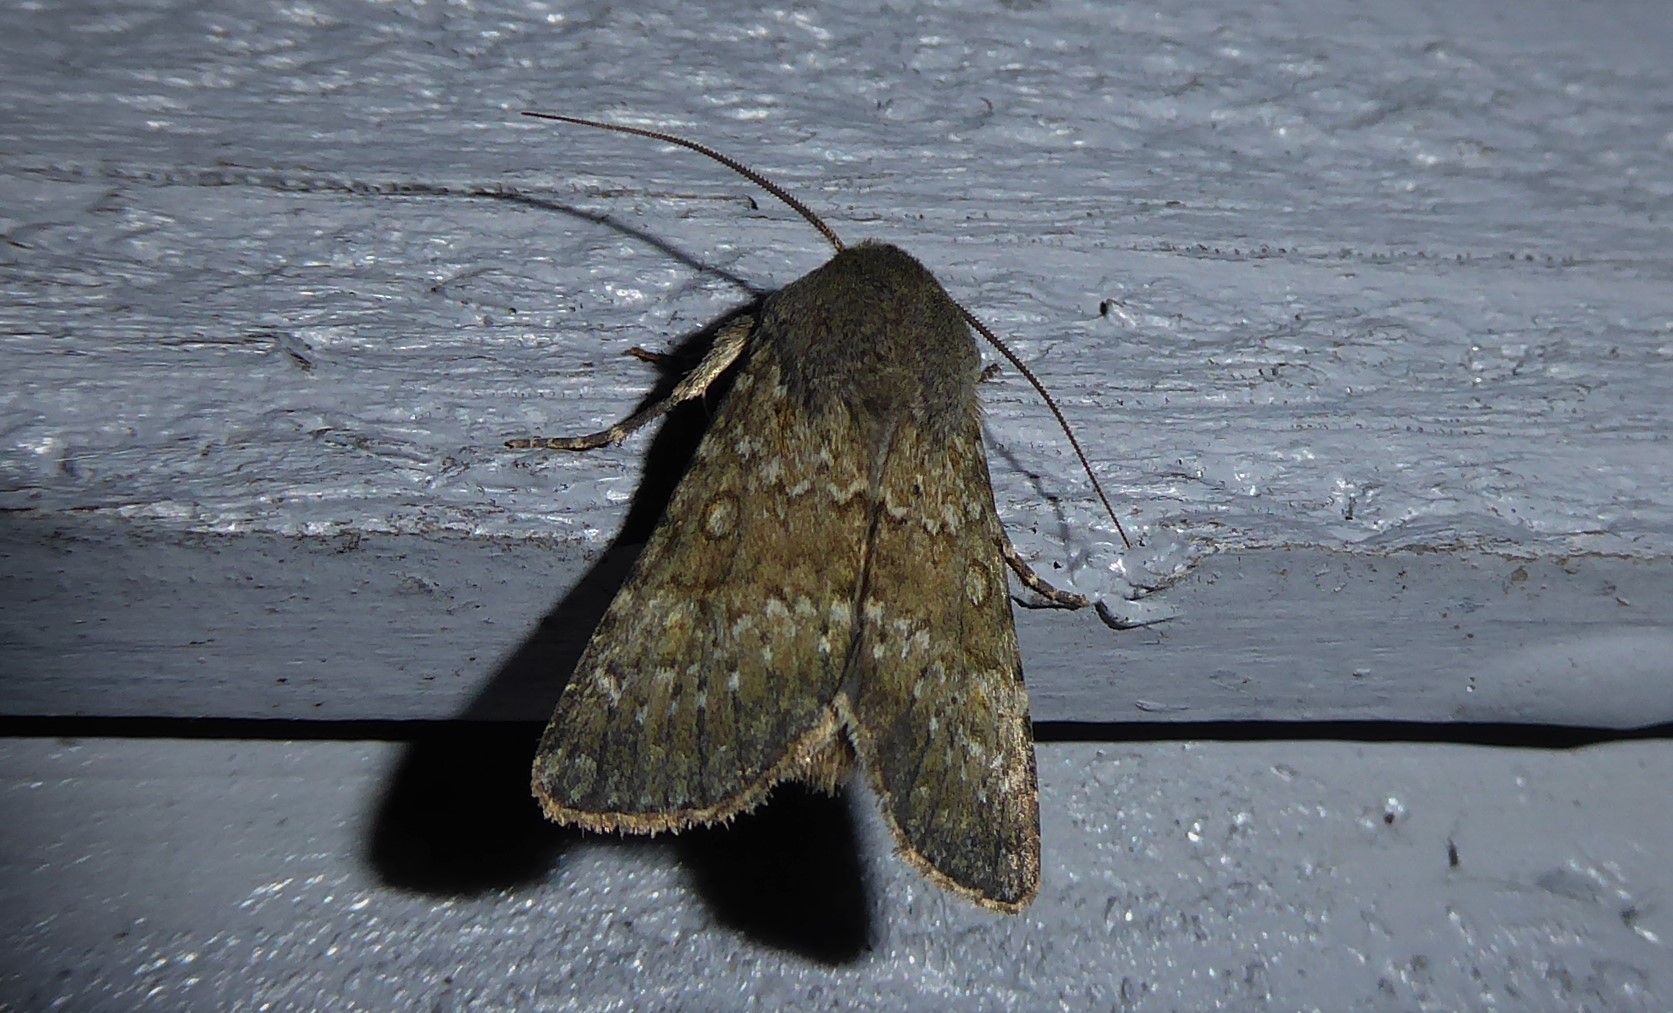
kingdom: Animalia
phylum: Arthropoda
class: Insecta
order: Lepidoptera
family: Noctuidae
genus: Ichneutica
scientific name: Ichneutica moderata
